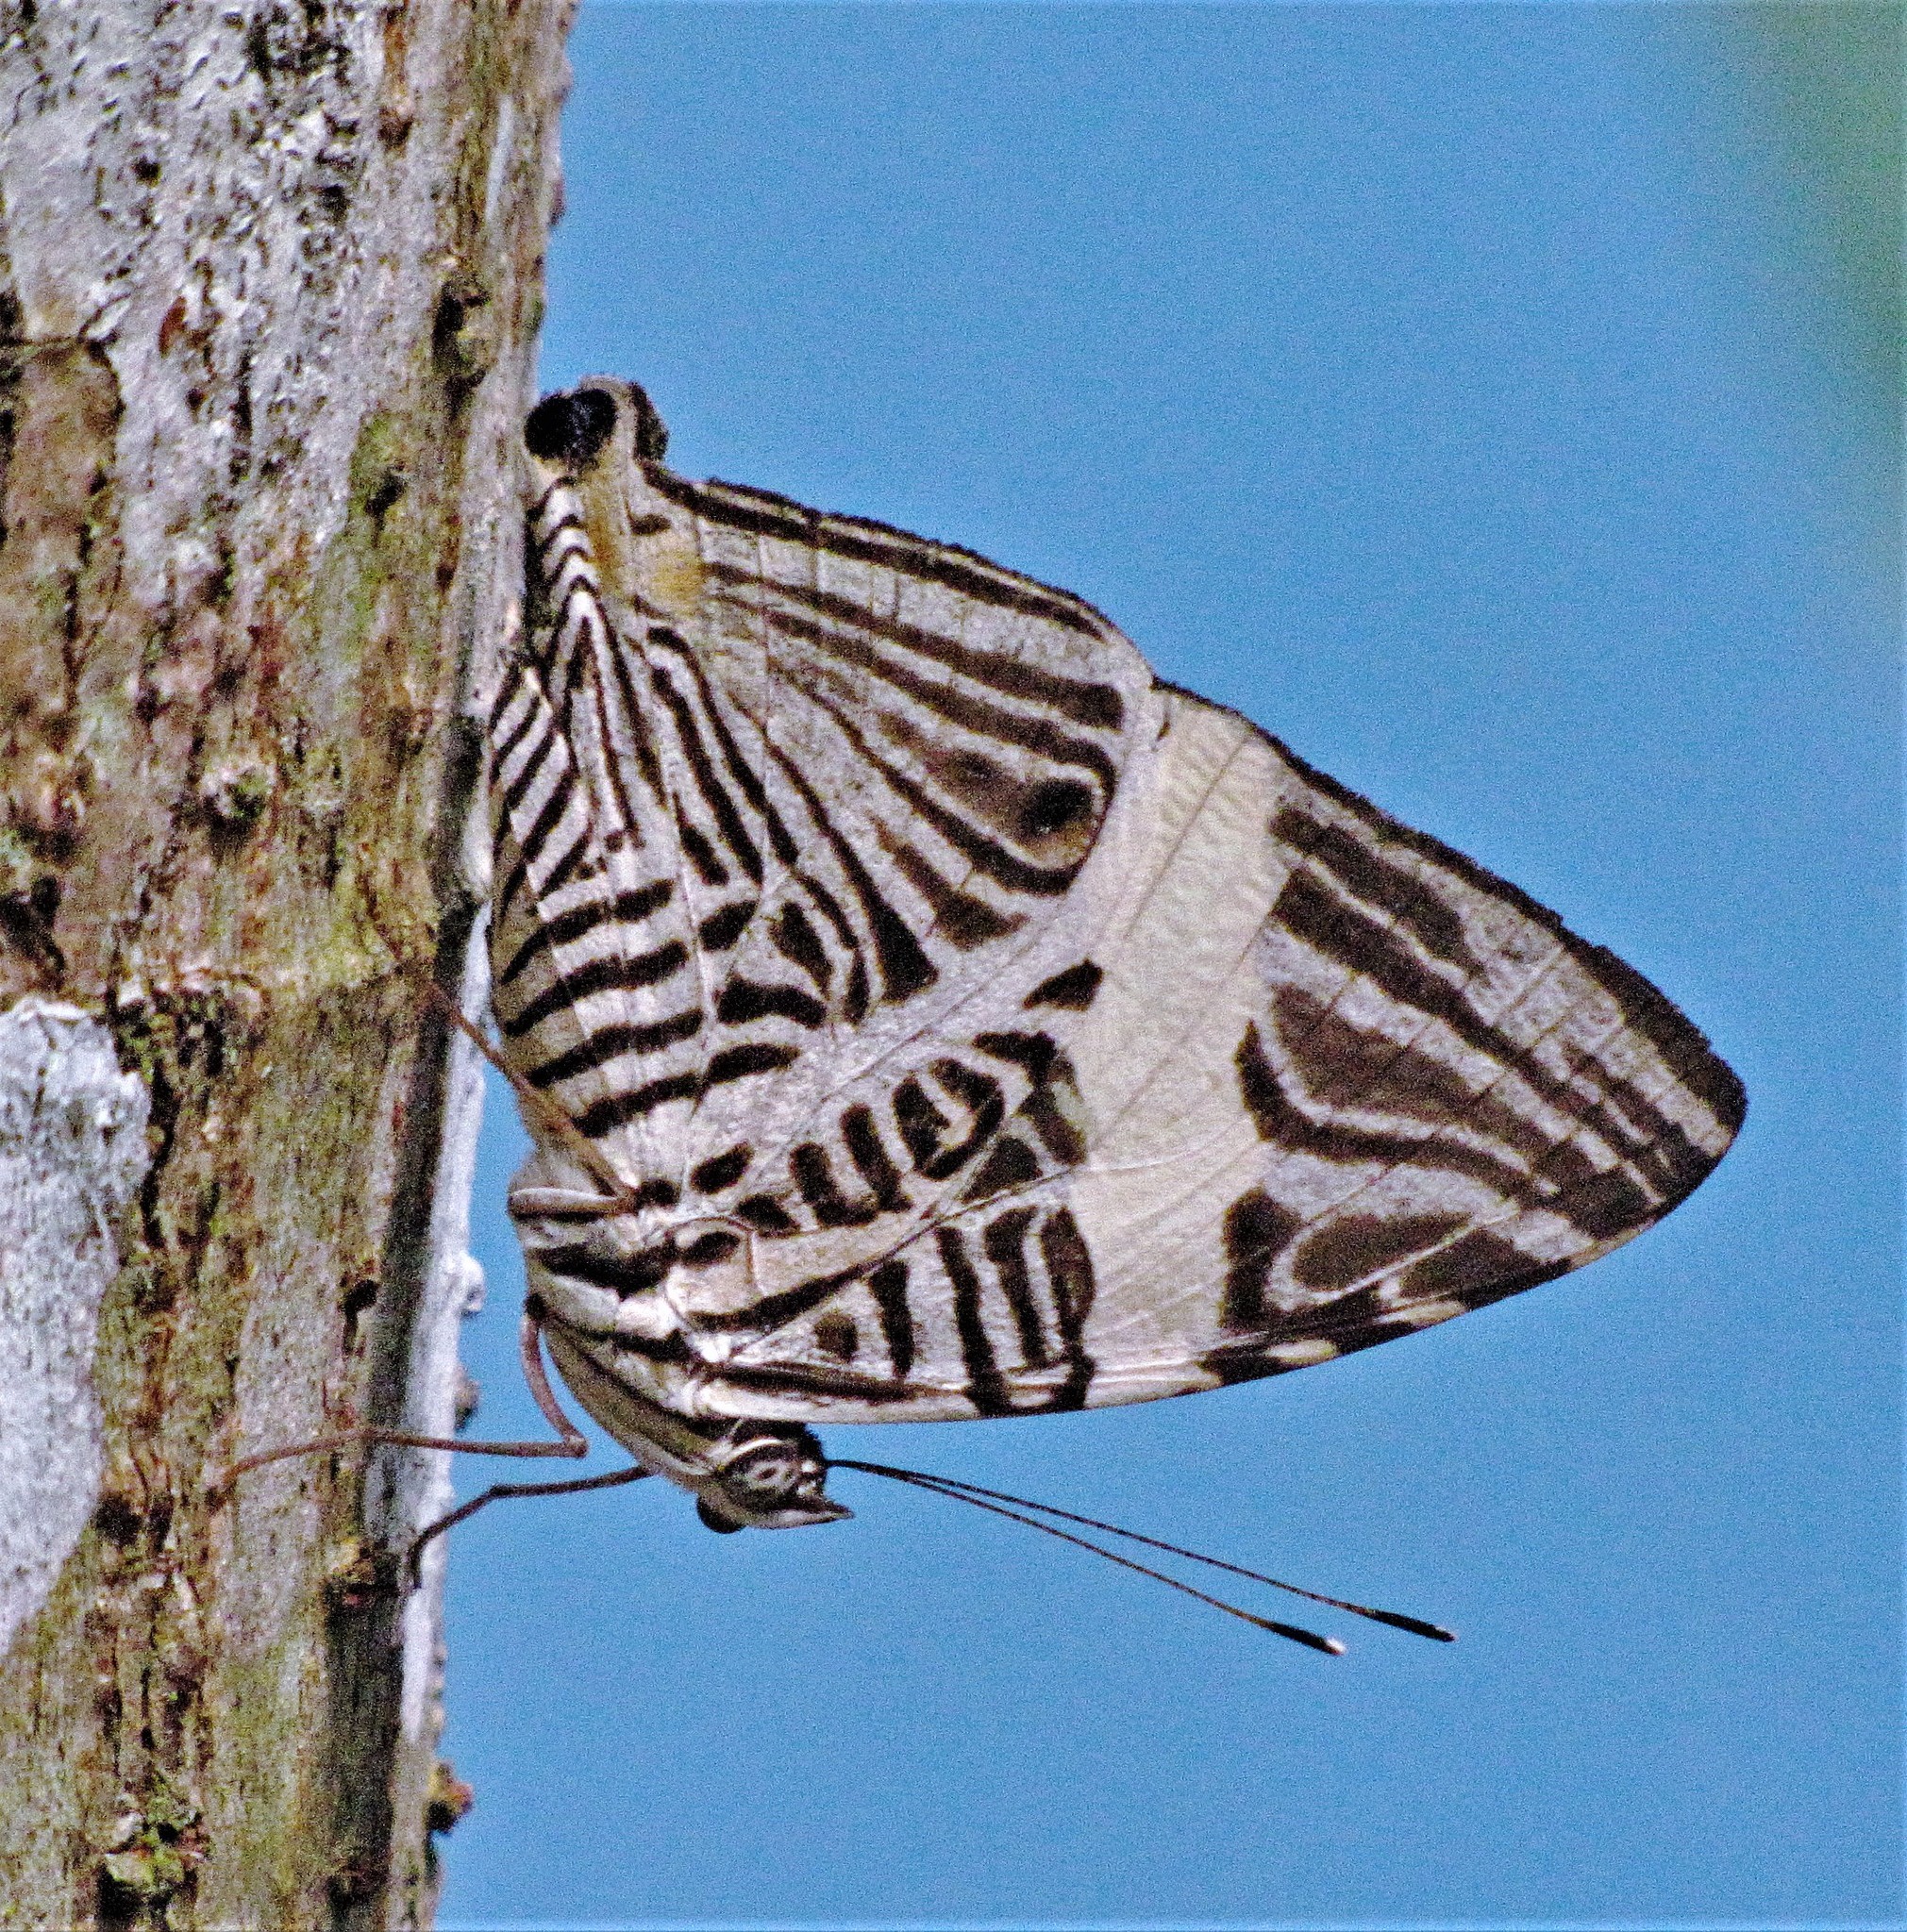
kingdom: Animalia
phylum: Arthropoda
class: Insecta
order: Lepidoptera
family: Nymphalidae
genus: Colobura
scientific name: Colobura dirce
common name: Dirce beauty
